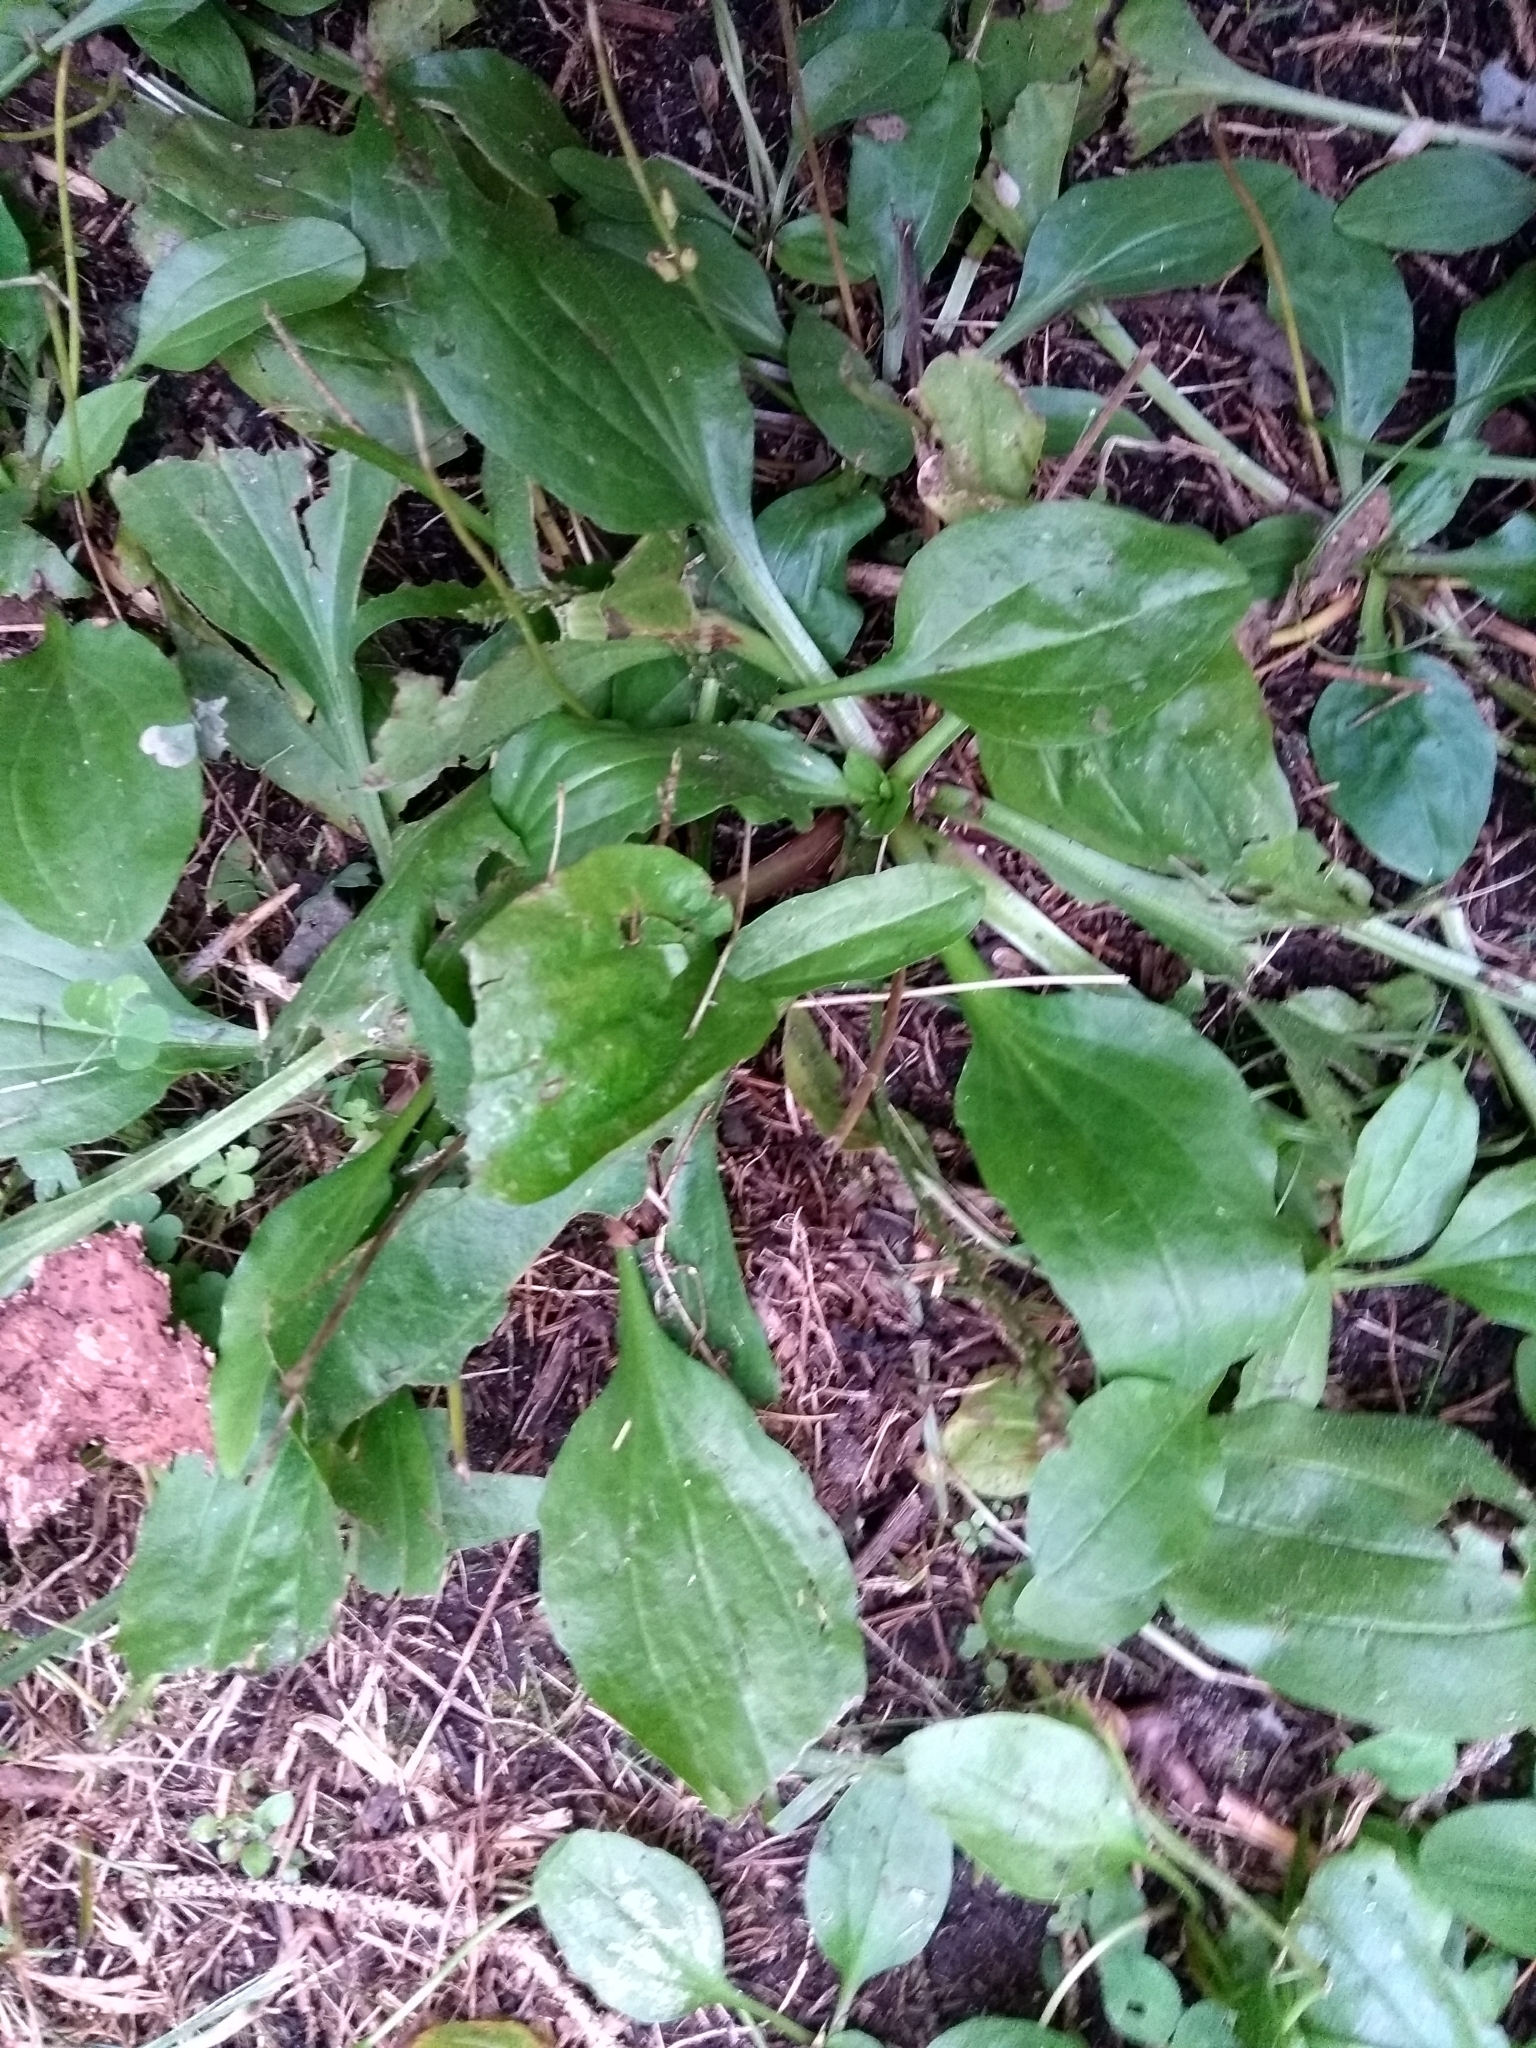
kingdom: Plantae
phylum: Tracheophyta
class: Magnoliopsida
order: Lamiales
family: Plantaginaceae
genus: Plantago
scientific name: Plantago major
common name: Common plantain
